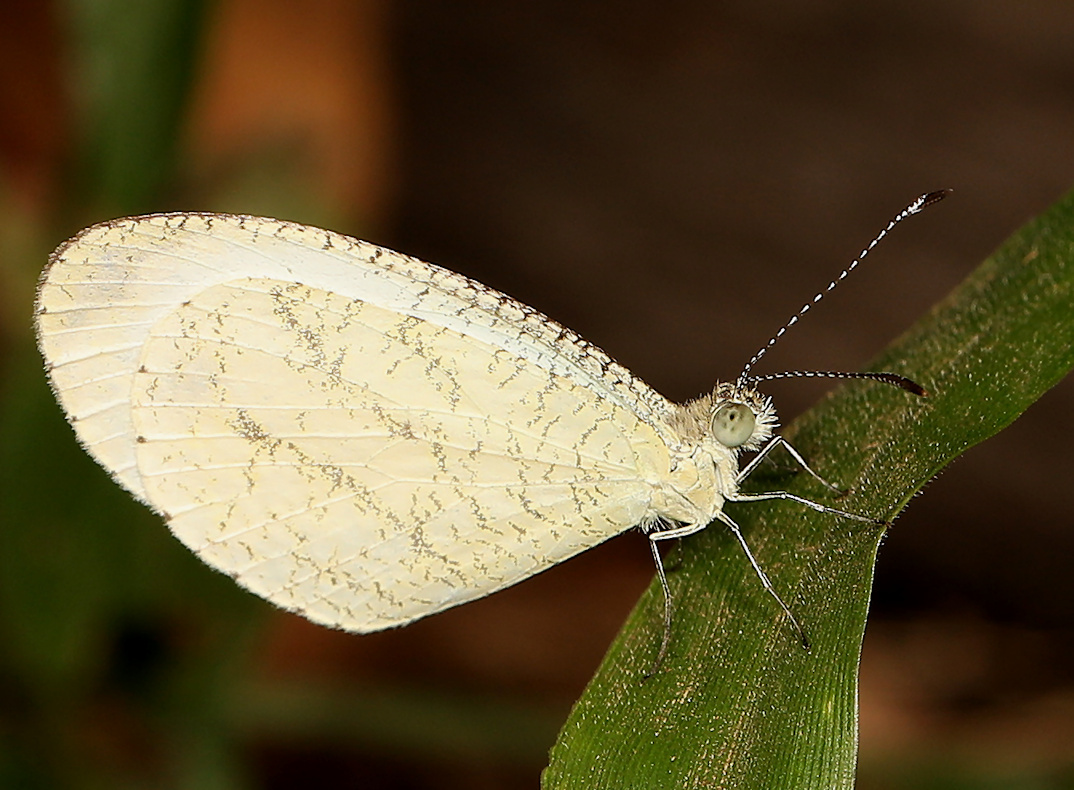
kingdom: Animalia
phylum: Arthropoda
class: Insecta
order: Lepidoptera
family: Pieridae
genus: Leptosia
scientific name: Leptosia alcesta
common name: African wood white
